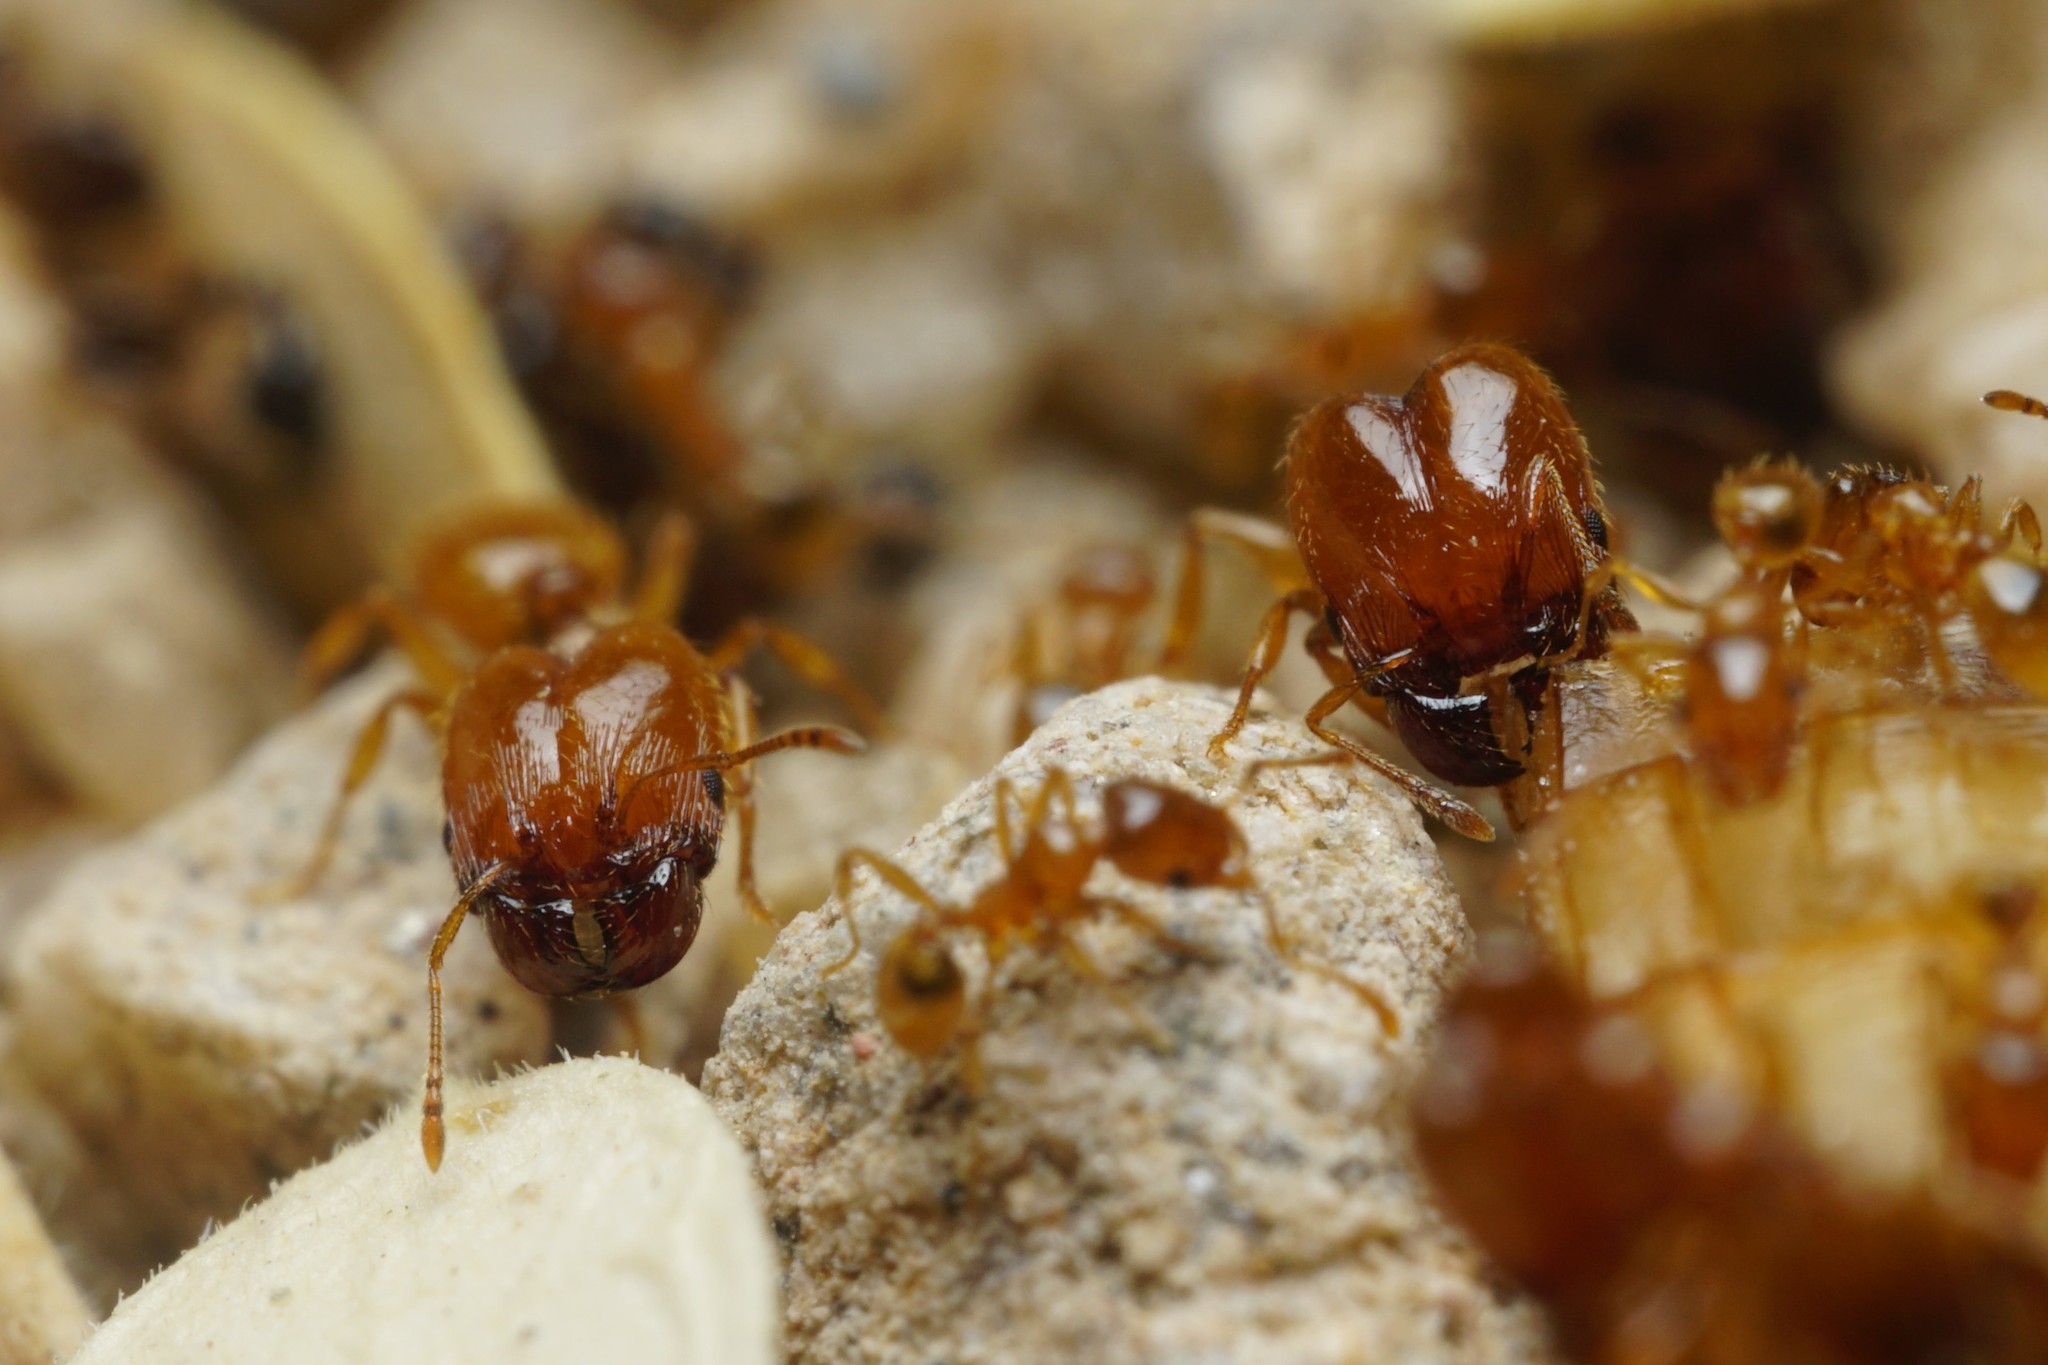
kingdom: Animalia
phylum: Arthropoda
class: Insecta
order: Hymenoptera
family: Formicidae
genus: Pheidole
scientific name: Pheidole cerebrosior
